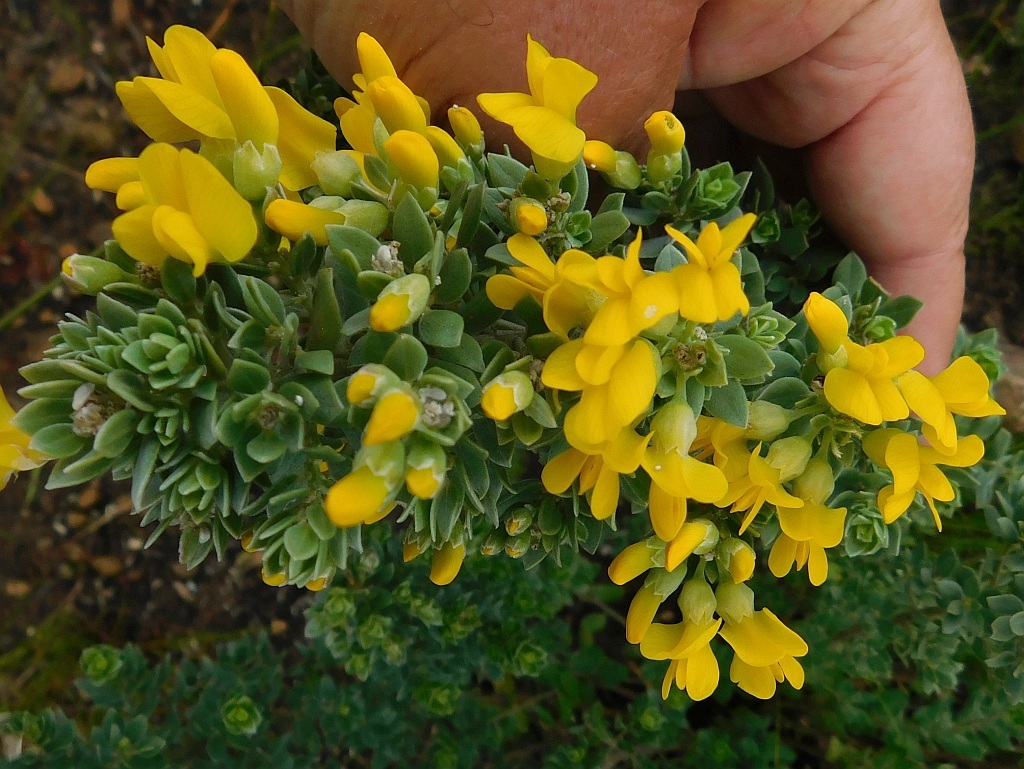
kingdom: Plantae
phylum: Tracheophyta
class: Magnoliopsida
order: Fabales
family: Fabaceae
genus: Xiphotheca
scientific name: Xiphotheca elliptica
